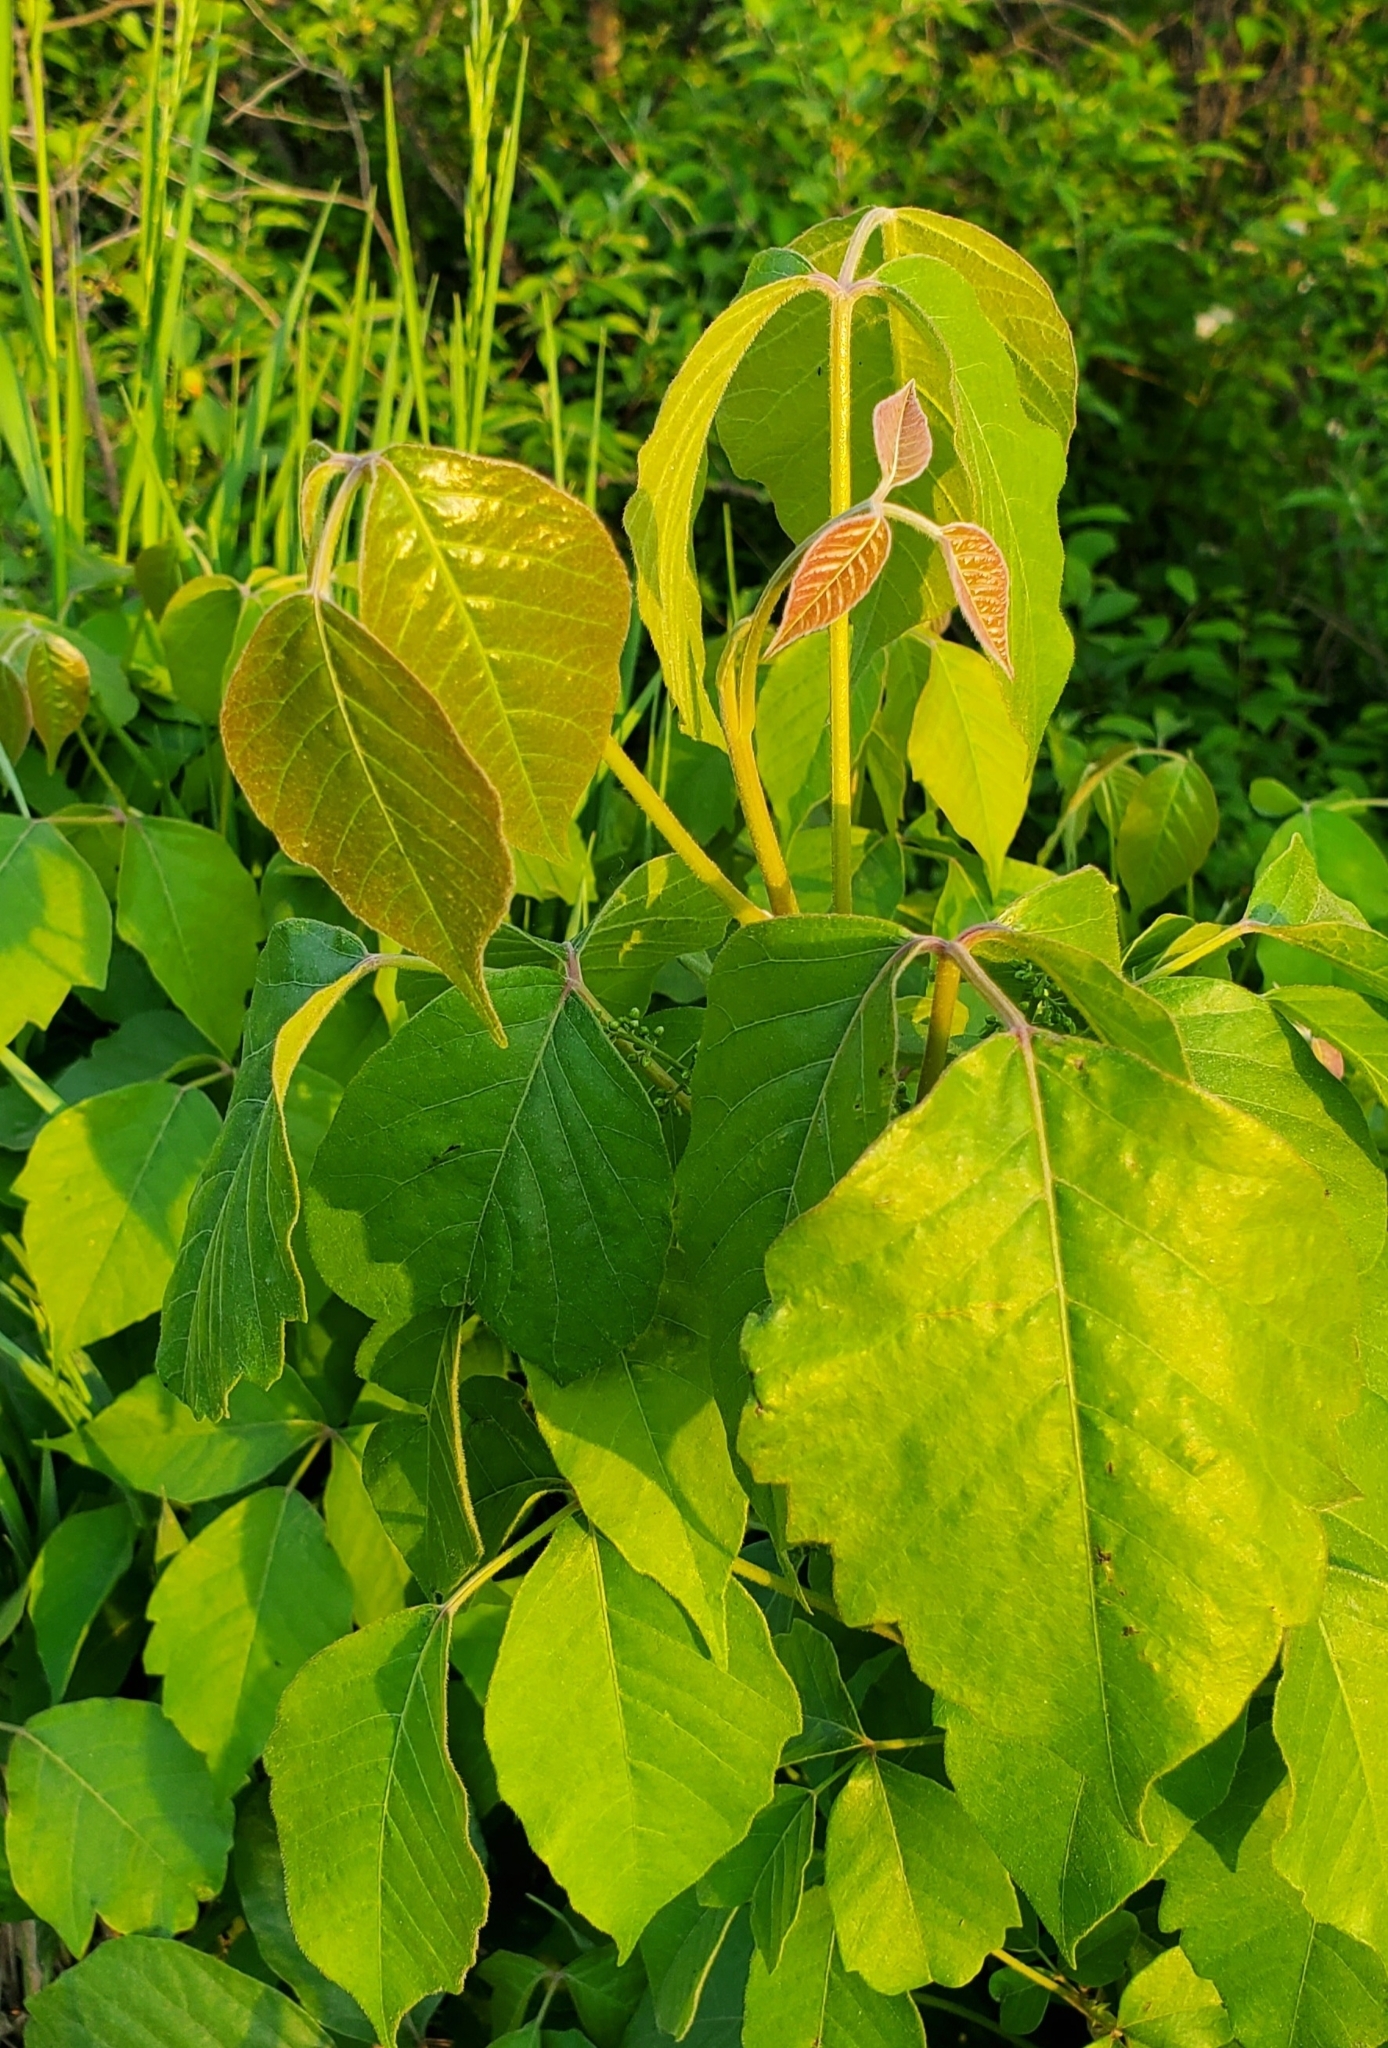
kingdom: Plantae
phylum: Tracheophyta
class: Magnoliopsida
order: Sapindales
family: Anacardiaceae
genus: Toxicodendron
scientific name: Toxicodendron radicans
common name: Poison ivy
